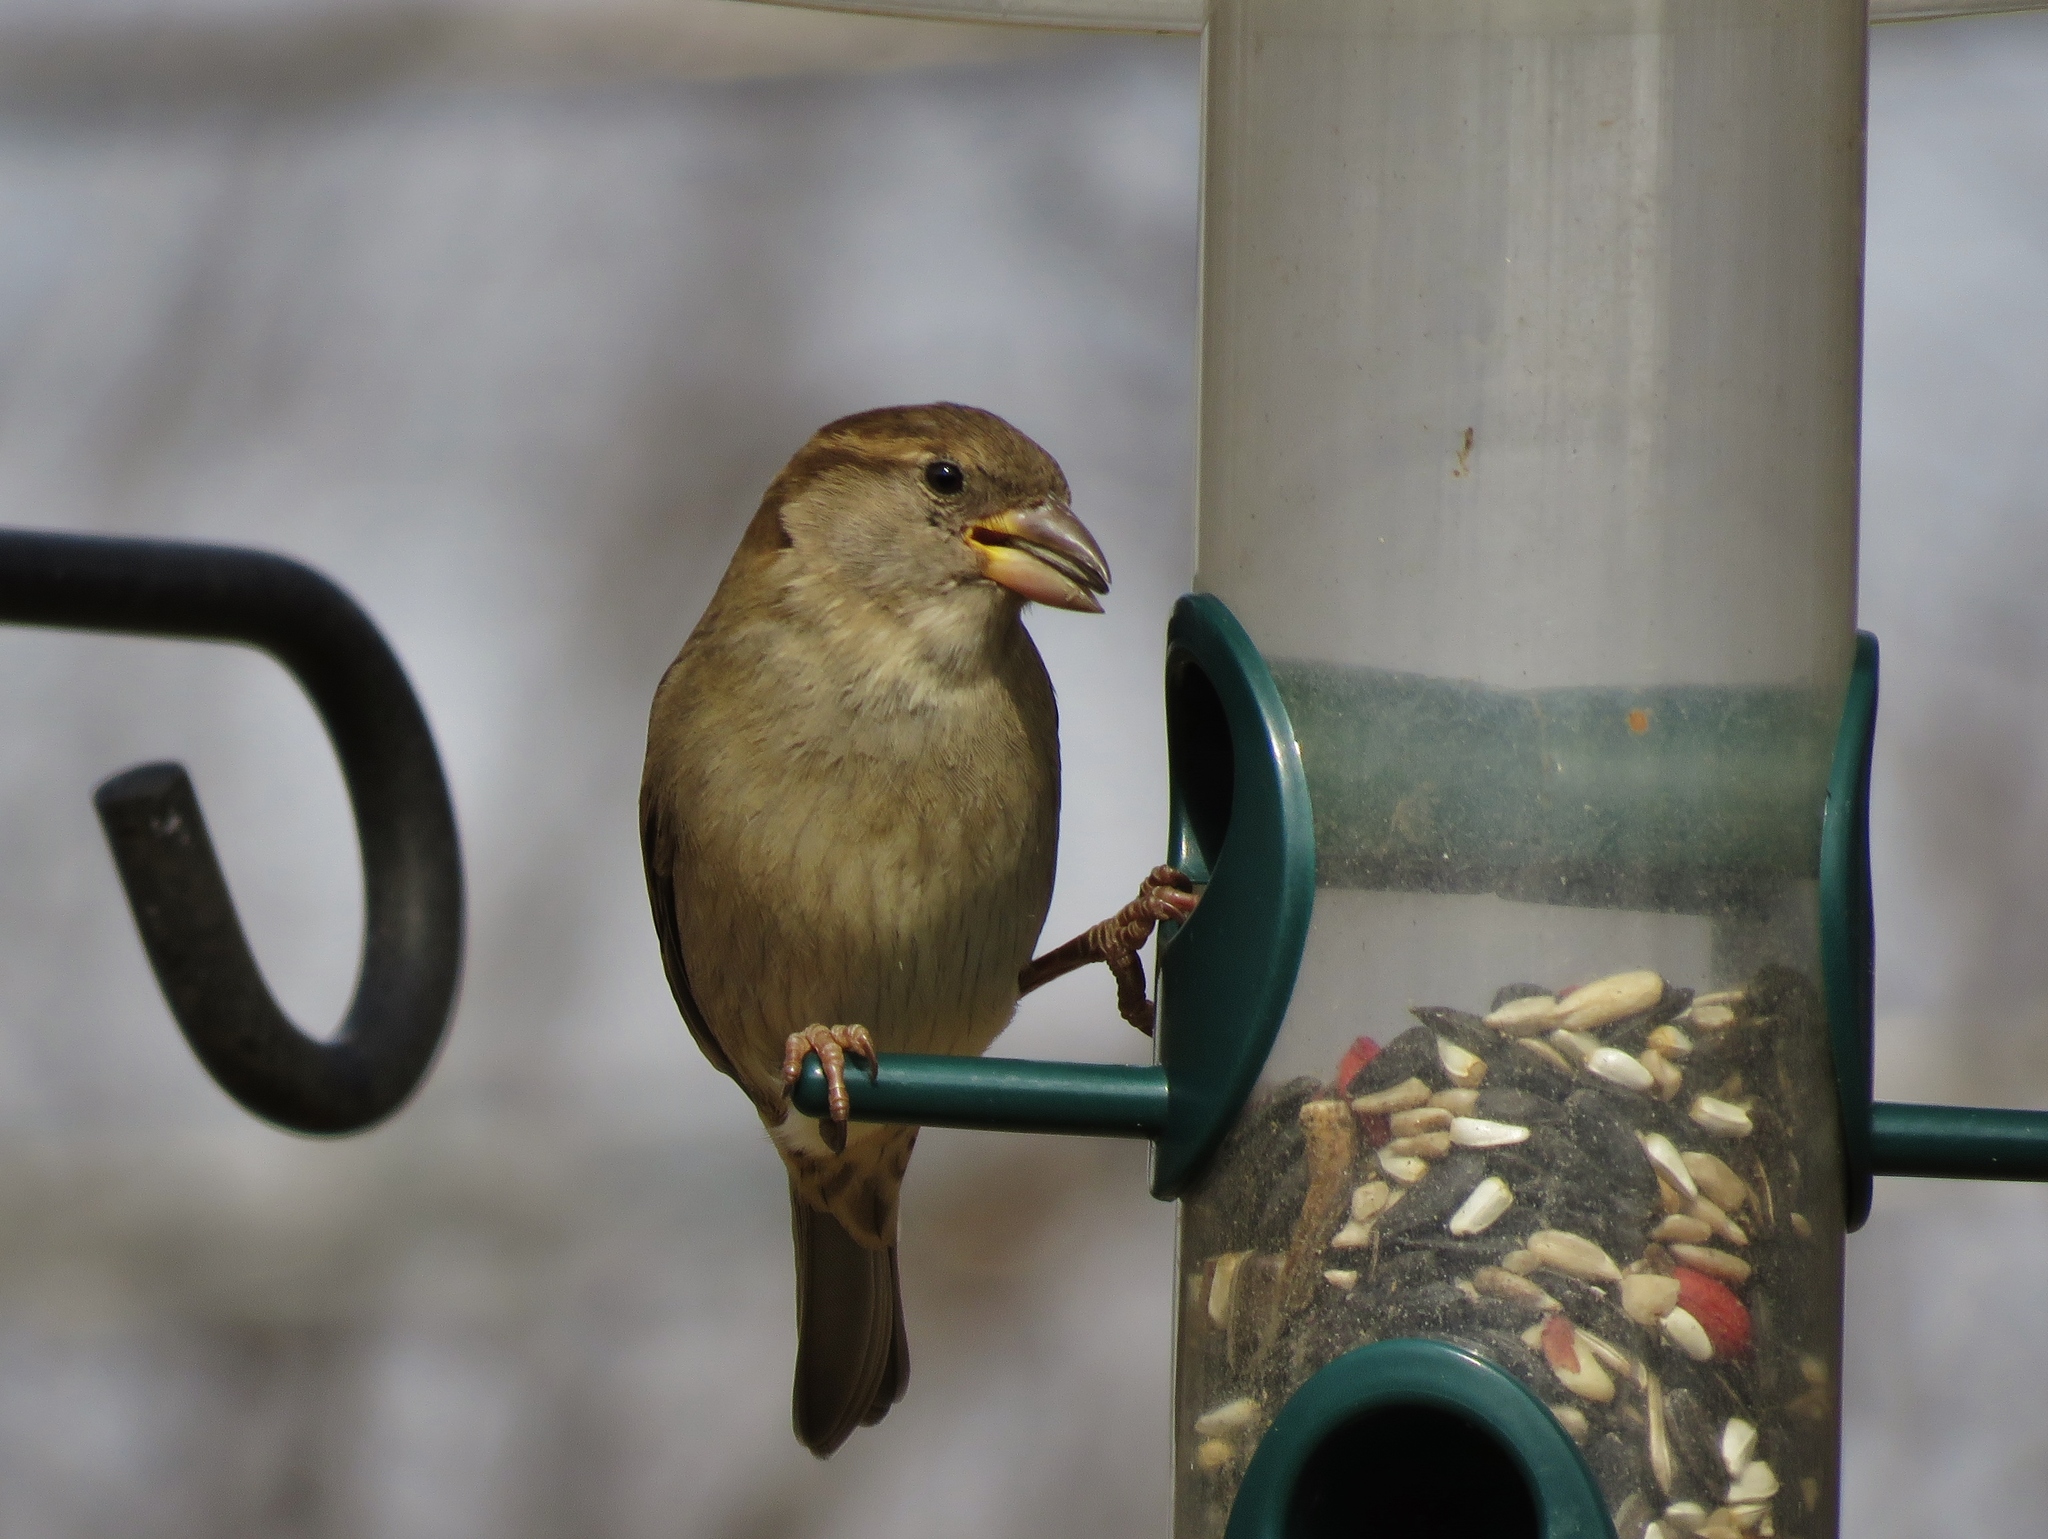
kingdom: Animalia
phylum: Chordata
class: Aves
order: Passeriformes
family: Passeridae
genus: Passer
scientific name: Passer domesticus
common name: House sparrow
